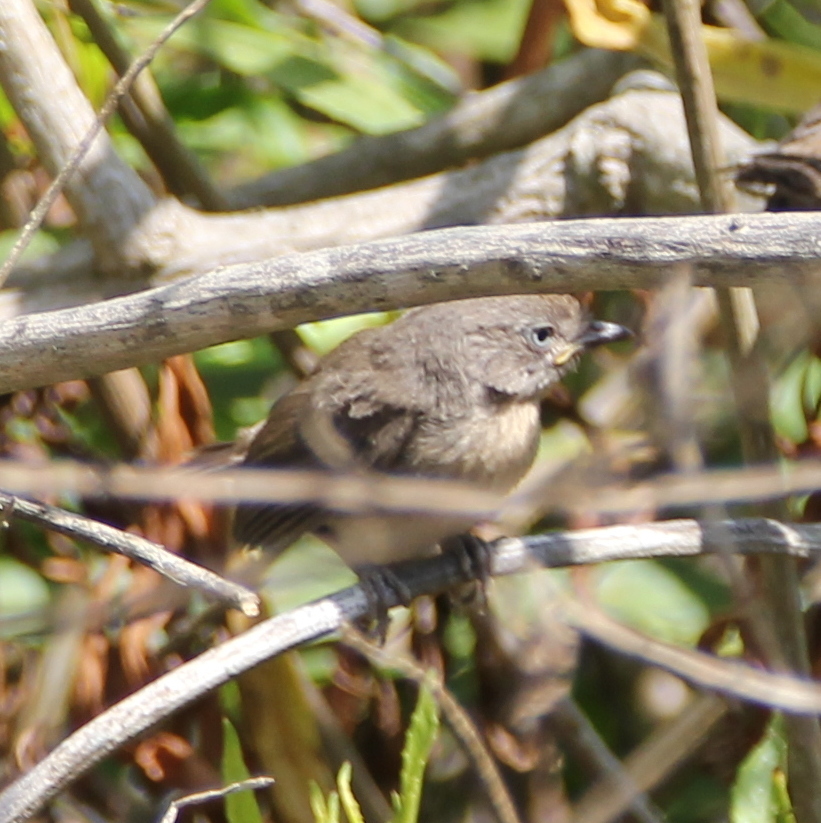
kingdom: Animalia
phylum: Chordata
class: Aves
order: Passeriformes
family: Sylviidae
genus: Chamaea
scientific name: Chamaea fasciata
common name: Wrentit
